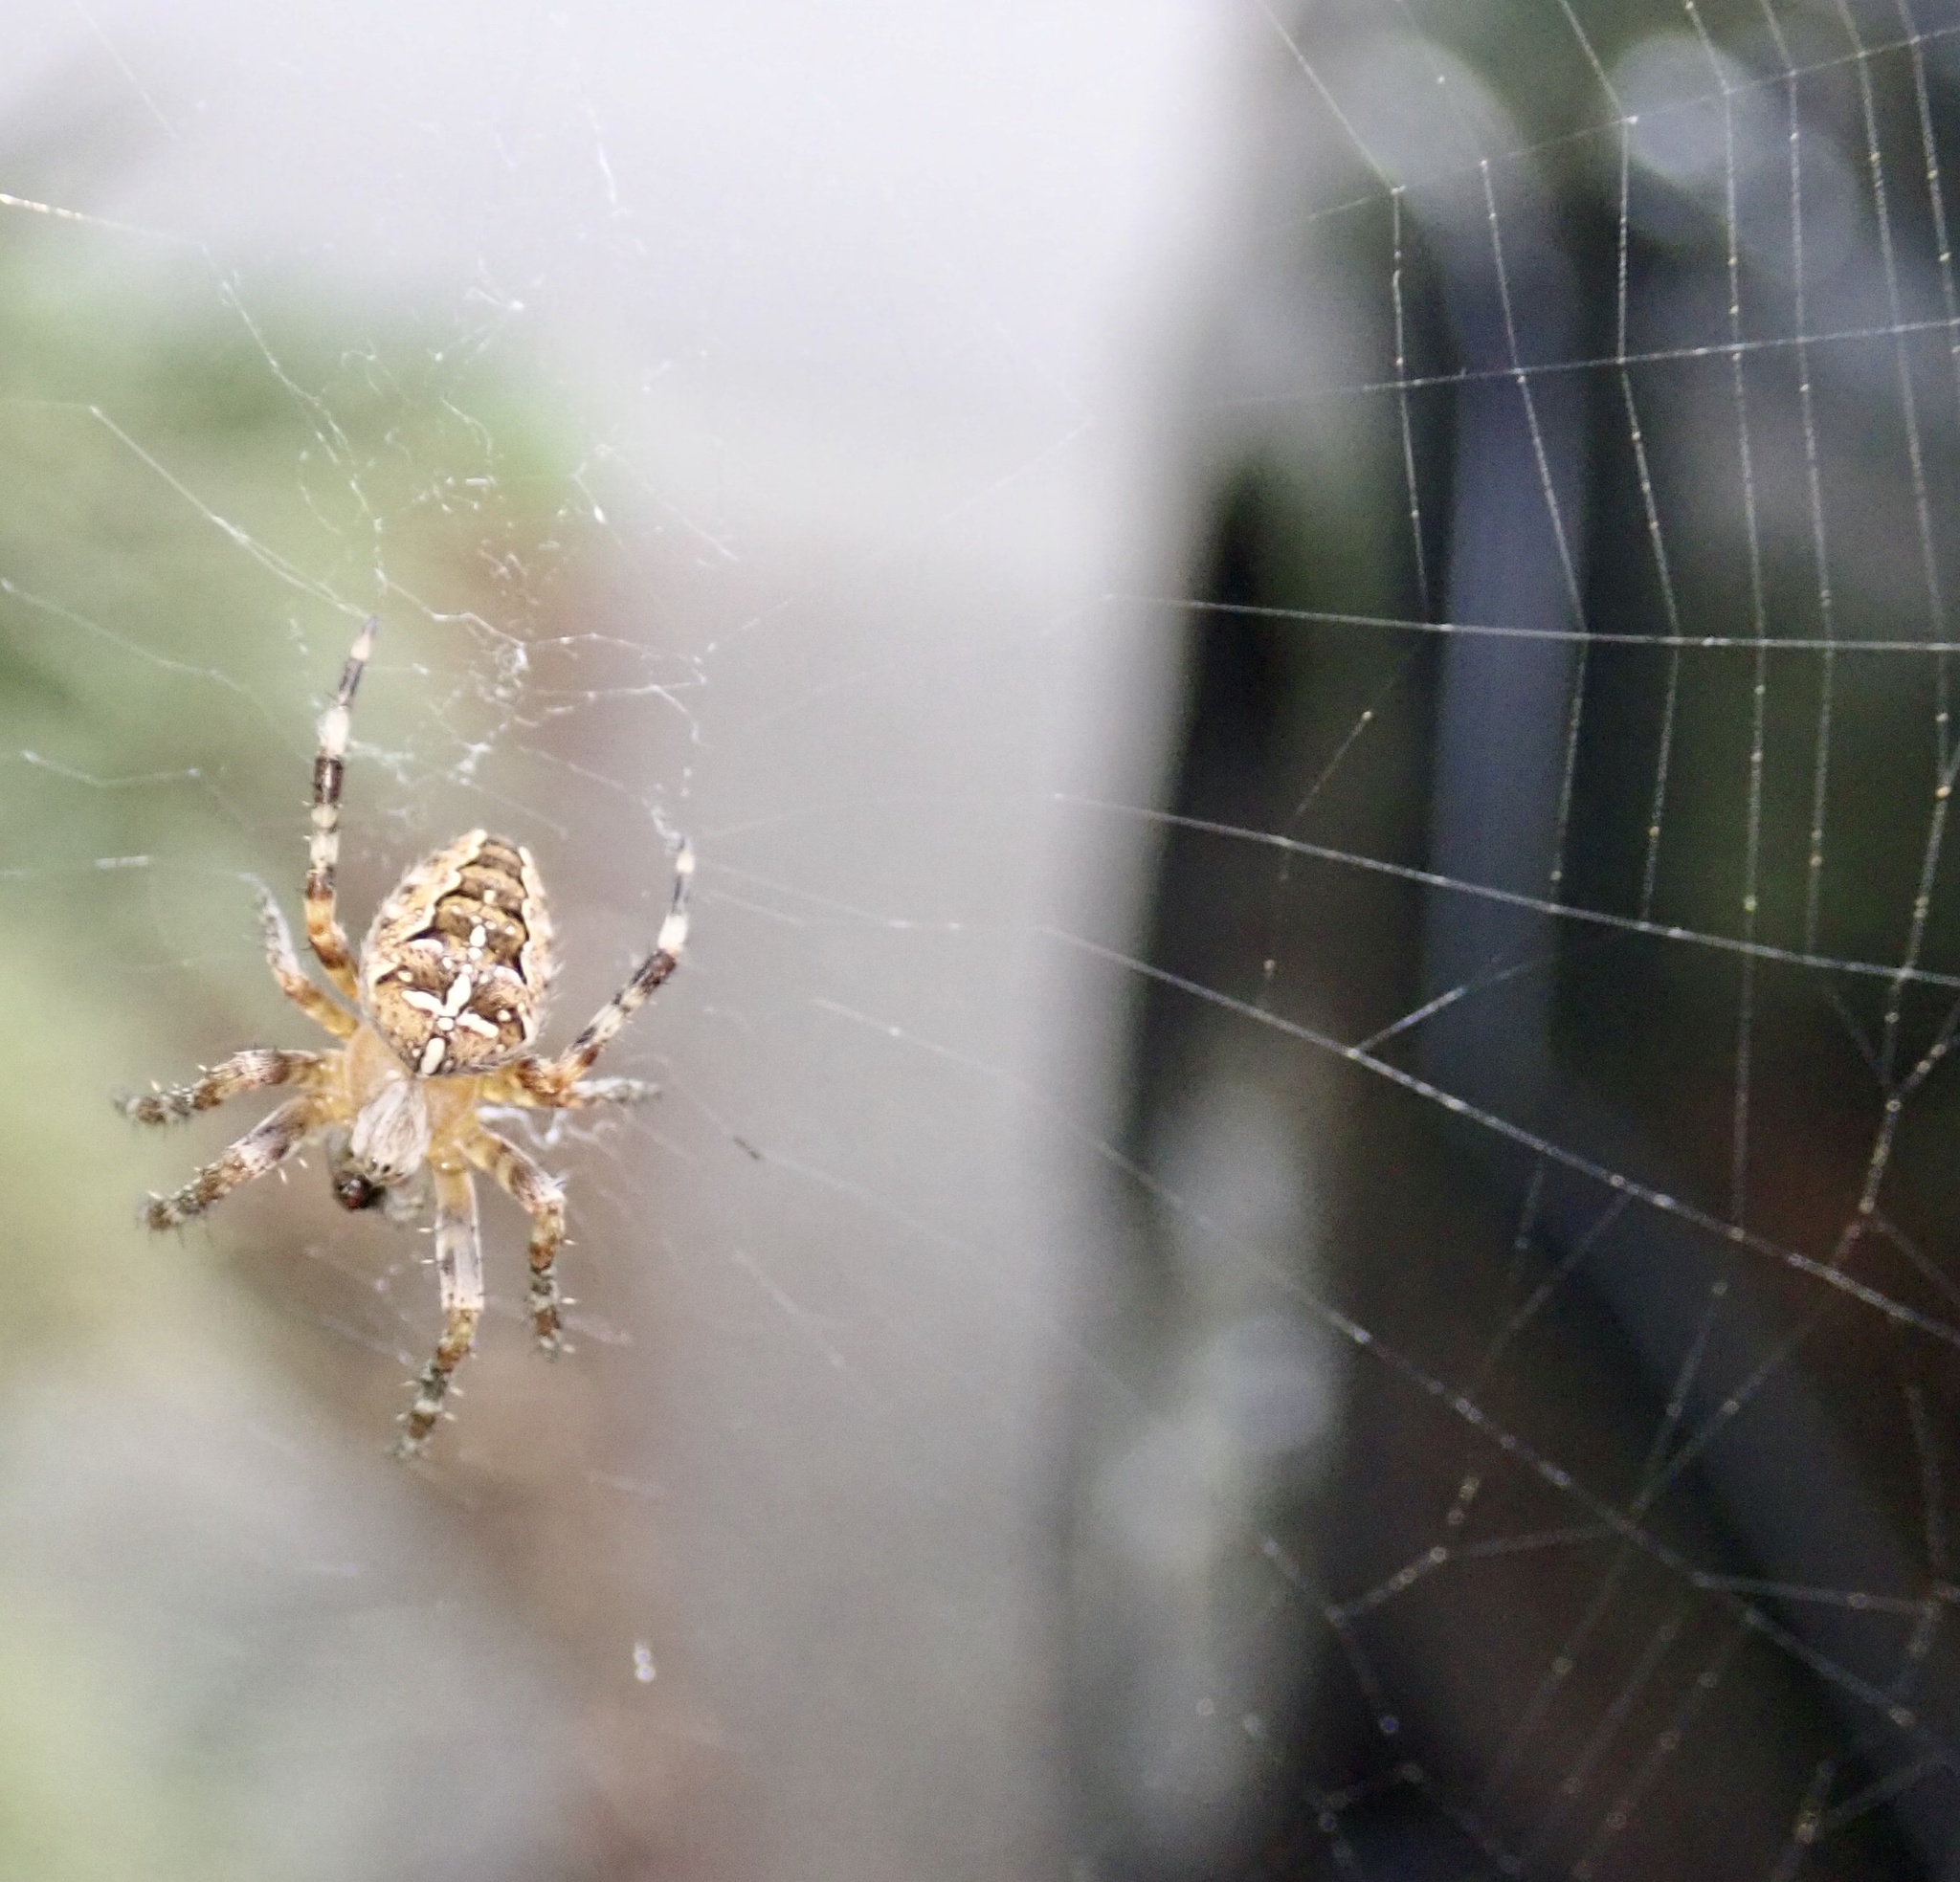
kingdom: Animalia
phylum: Arthropoda
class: Arachnida
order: Araneae
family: Araneidae
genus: Araneus
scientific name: Araneus diadematus
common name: Cross orbweaver
